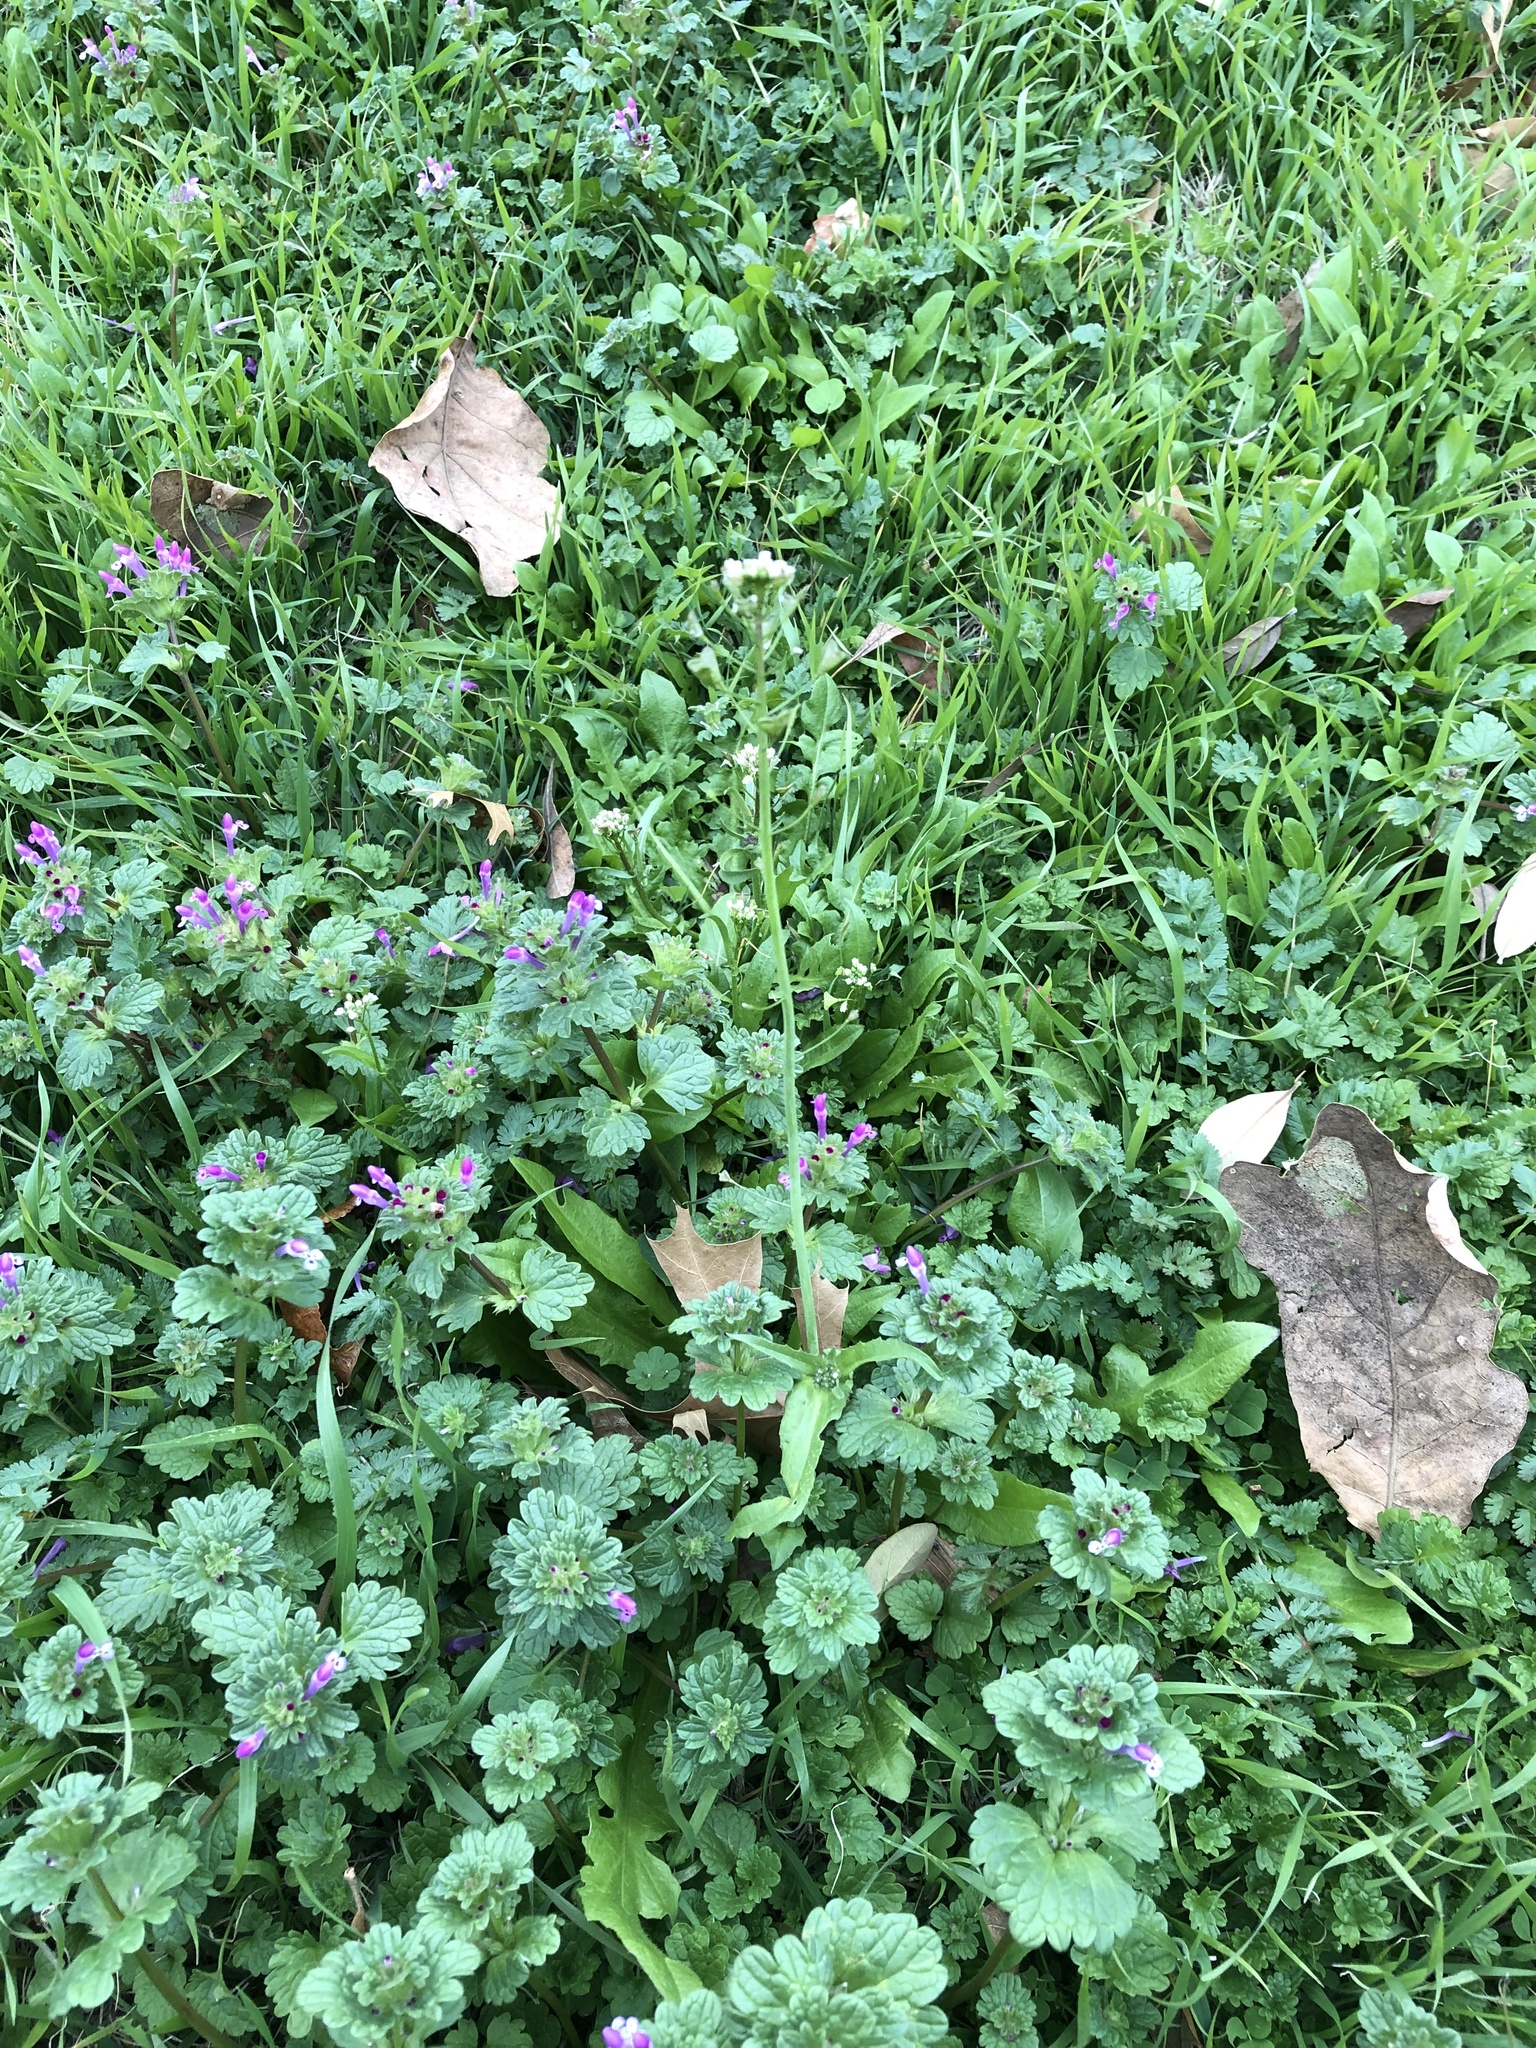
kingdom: Plantae
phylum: Tracheophyta
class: Magnoliopsida
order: Brassicales
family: Brassicaceae
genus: Capsella
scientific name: Capsella bursa-pastoris
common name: Shepherd's purse
